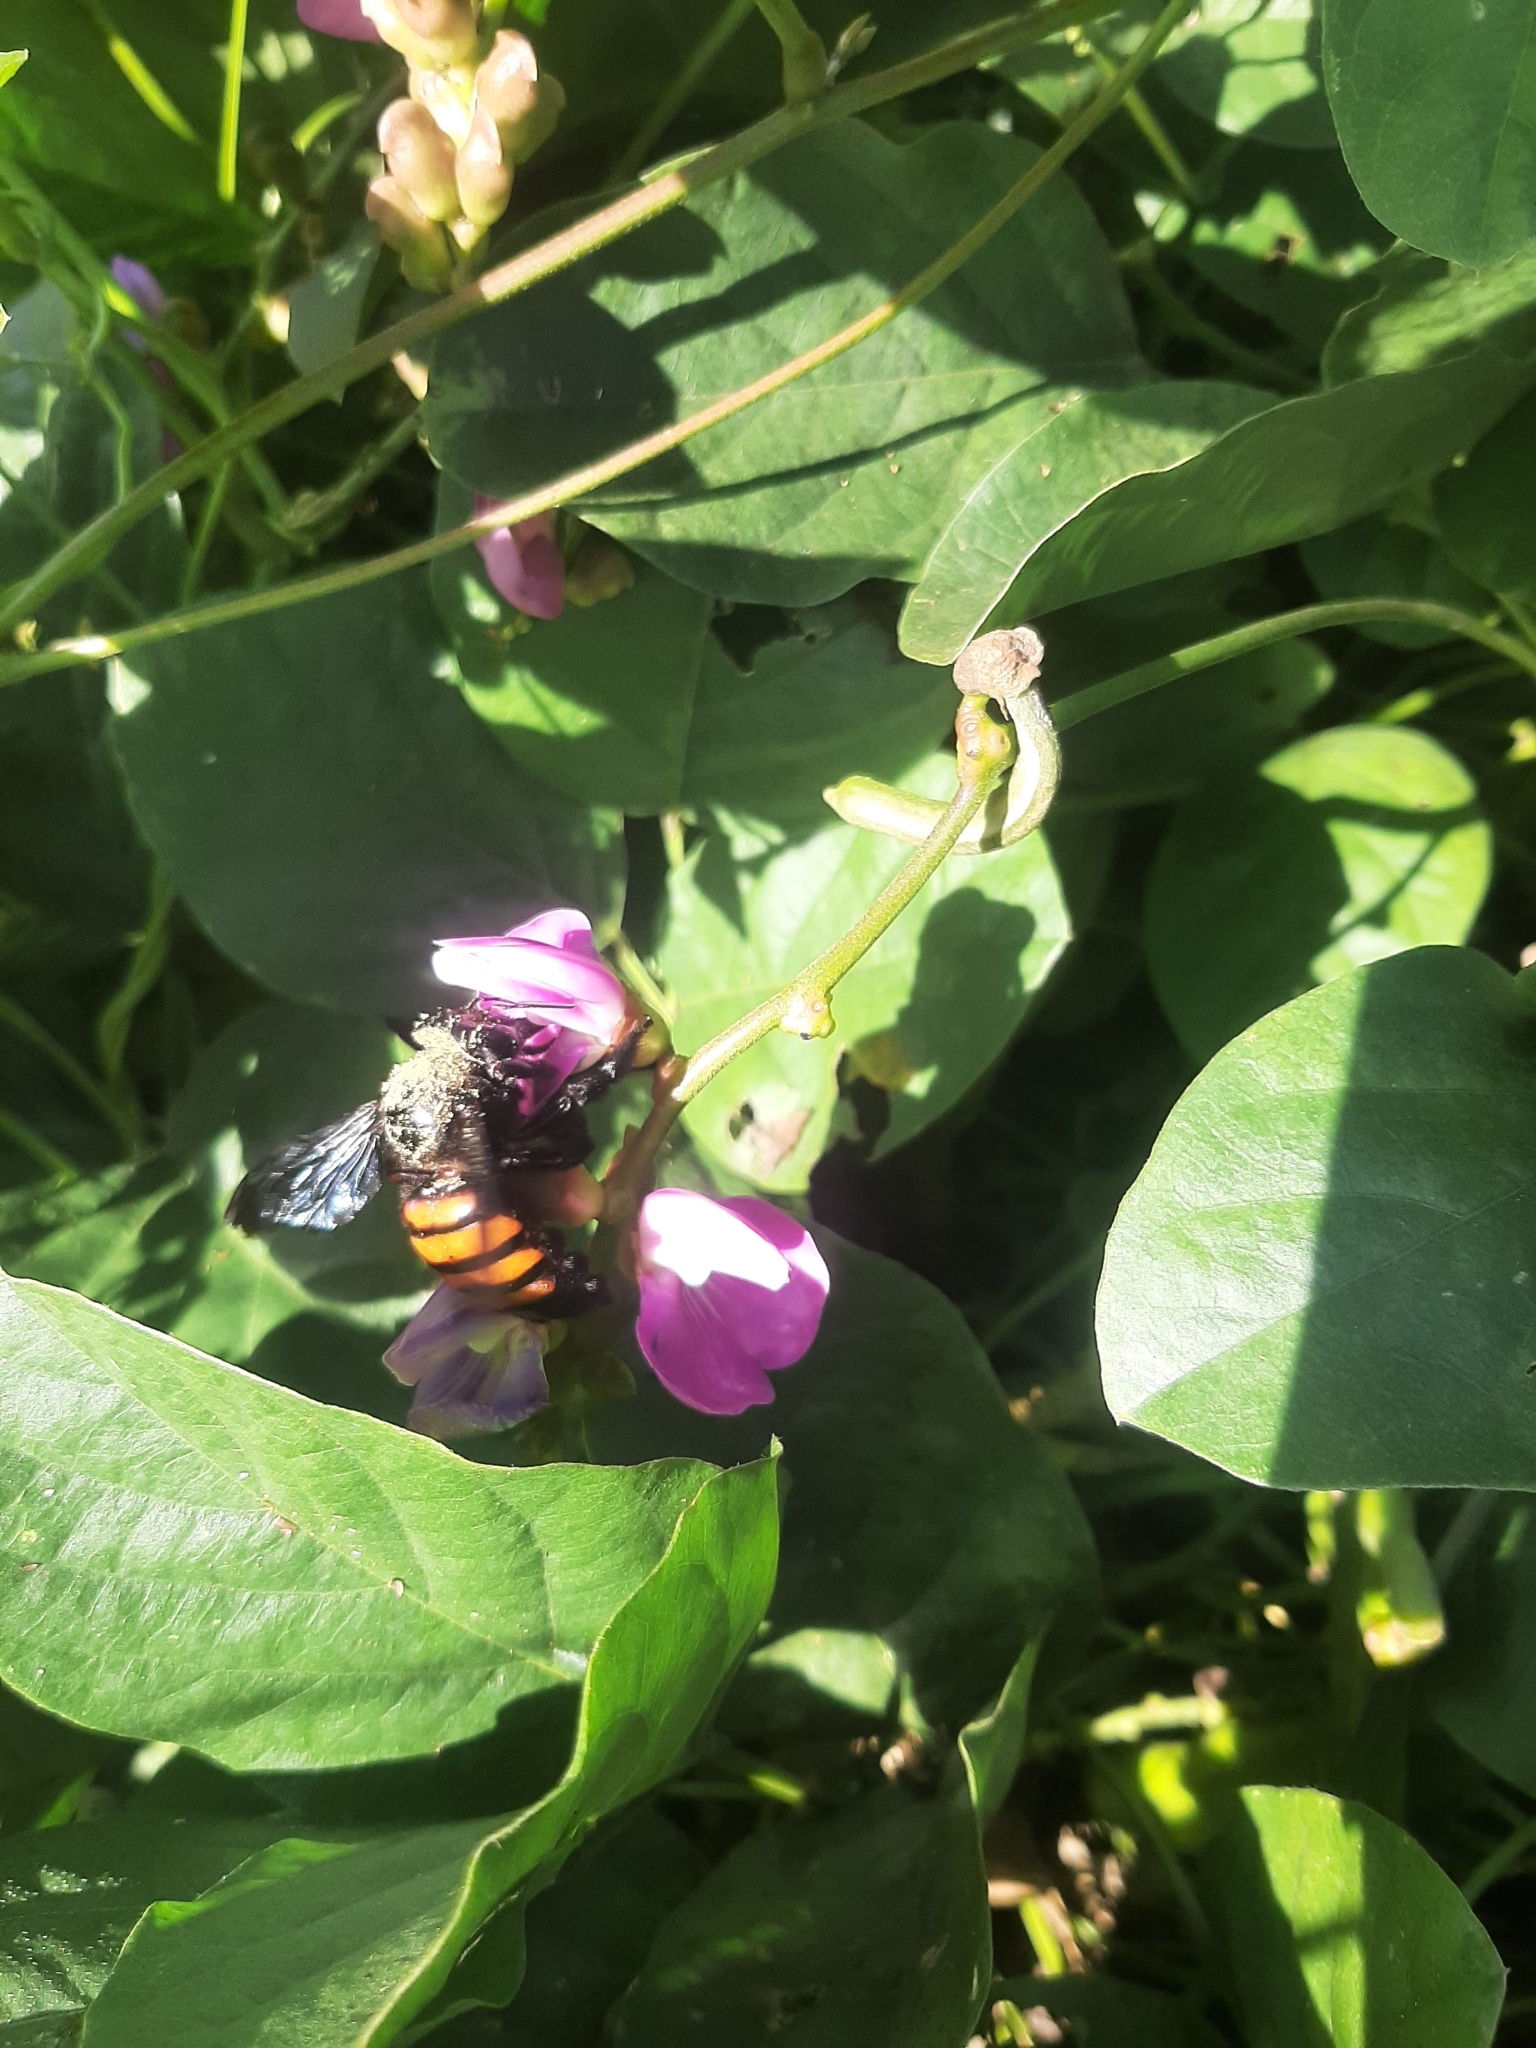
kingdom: Animalia
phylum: Arthropoda
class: Insecta
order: Hymenoptera
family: Apidae
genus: Xylocopa
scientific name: Xylocopa frontalis
